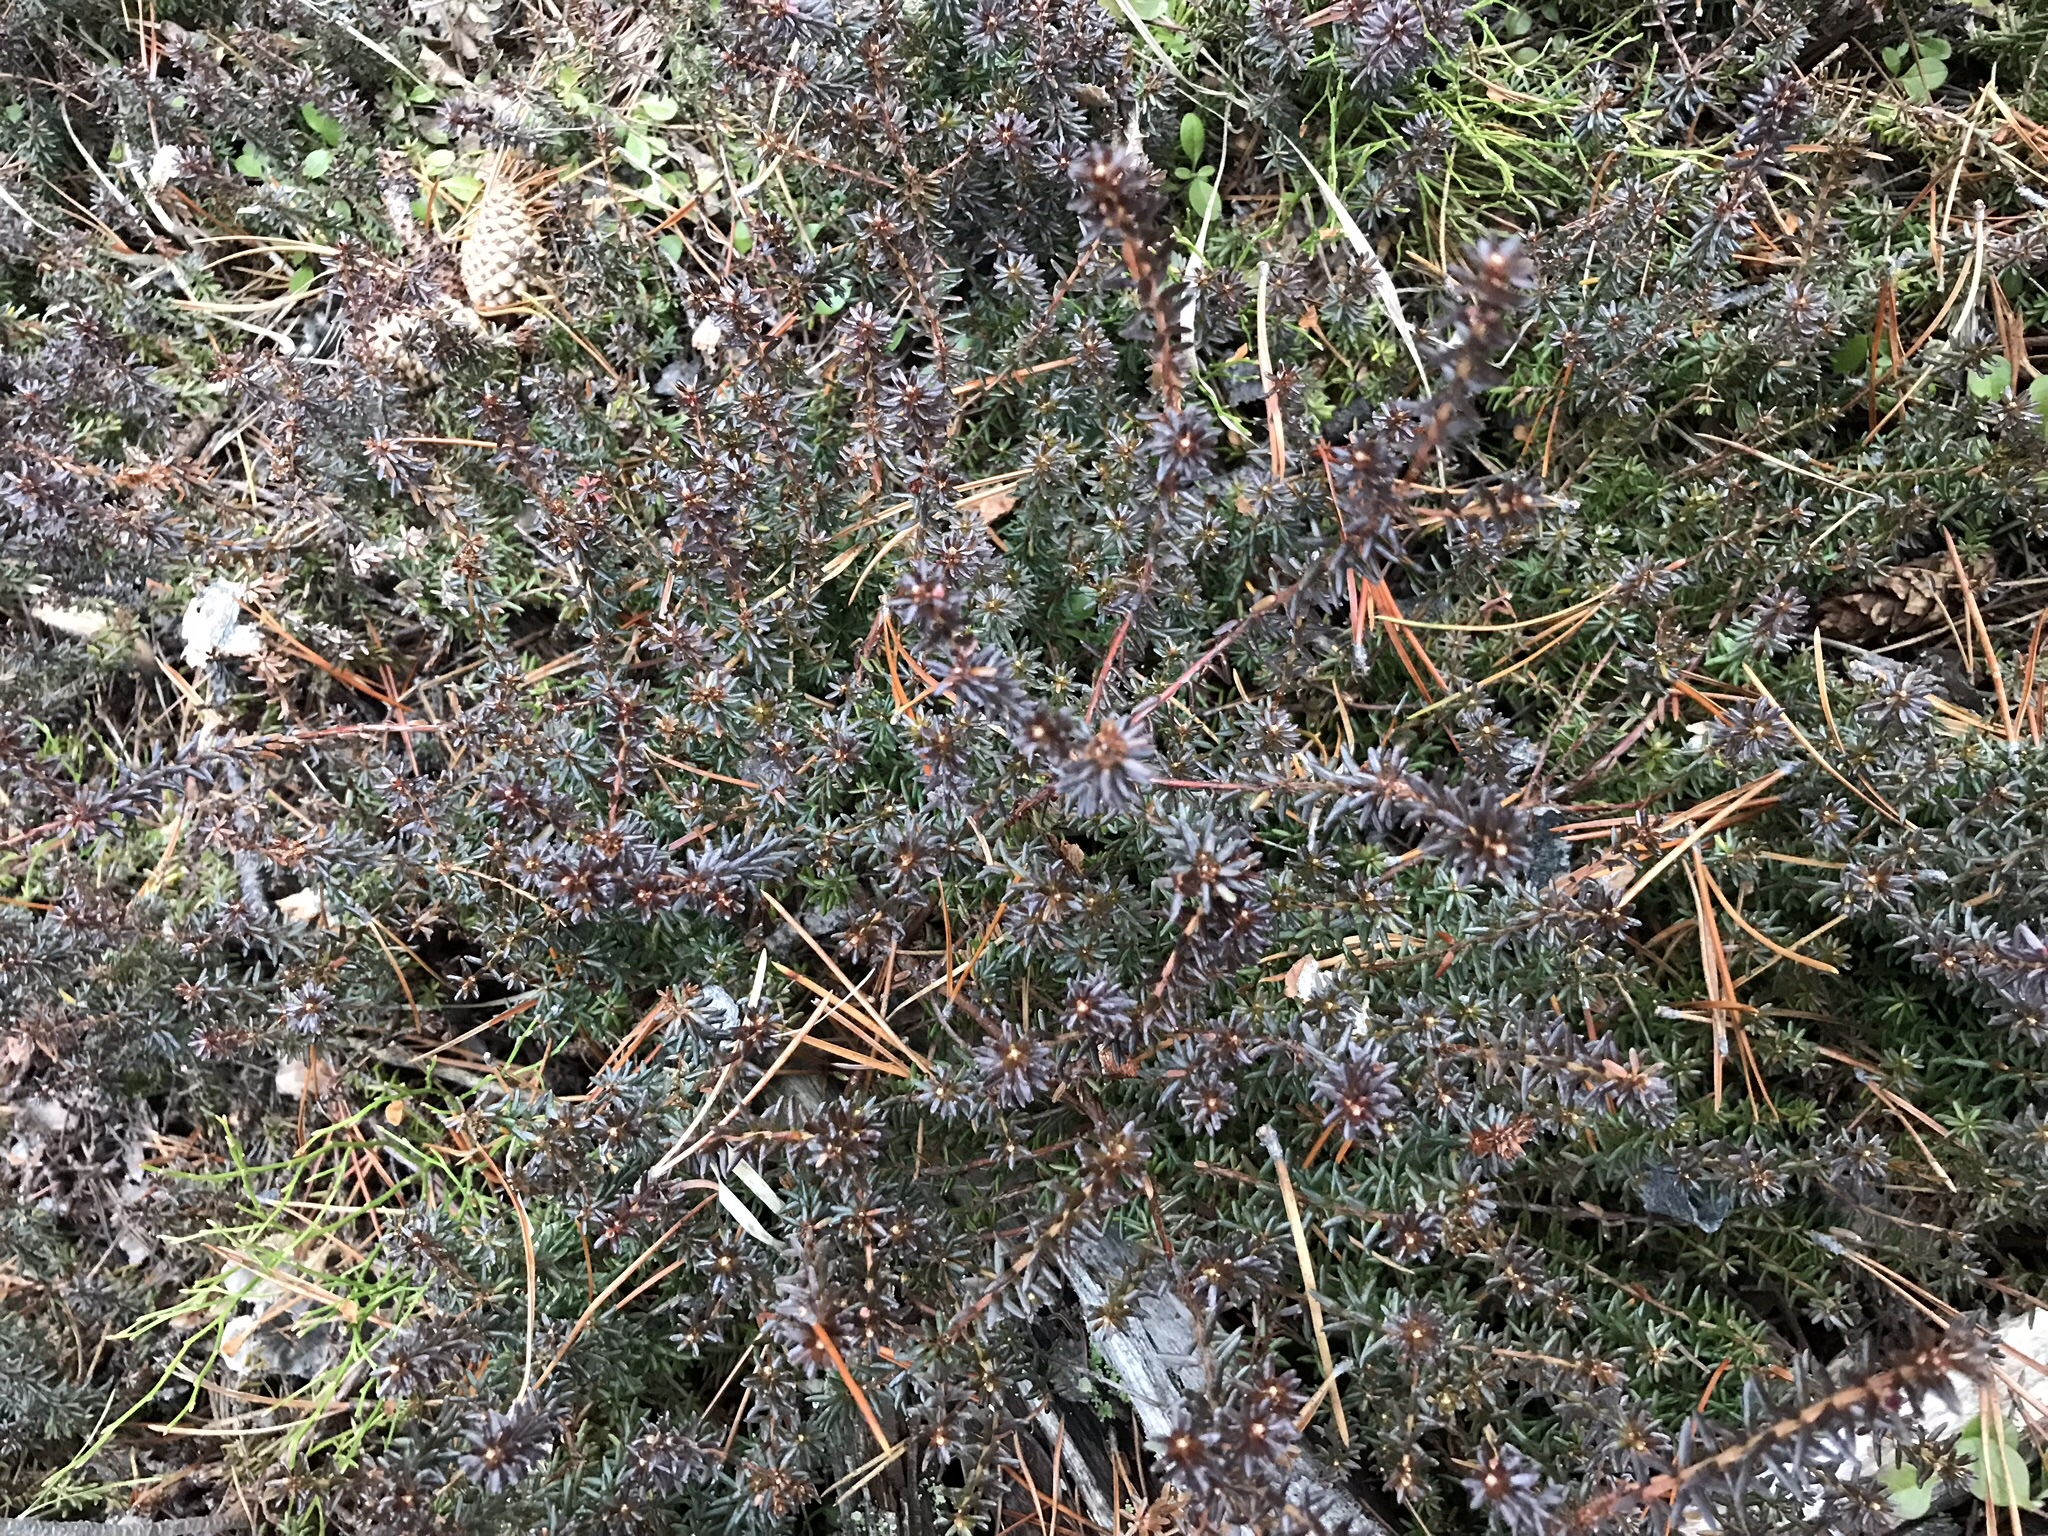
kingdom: Plantae
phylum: Tracheophyta
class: Magnoliopsida
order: Ericales
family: Ericaceae
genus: Empetrum
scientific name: Empetrum nigrum
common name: Black crowberry
